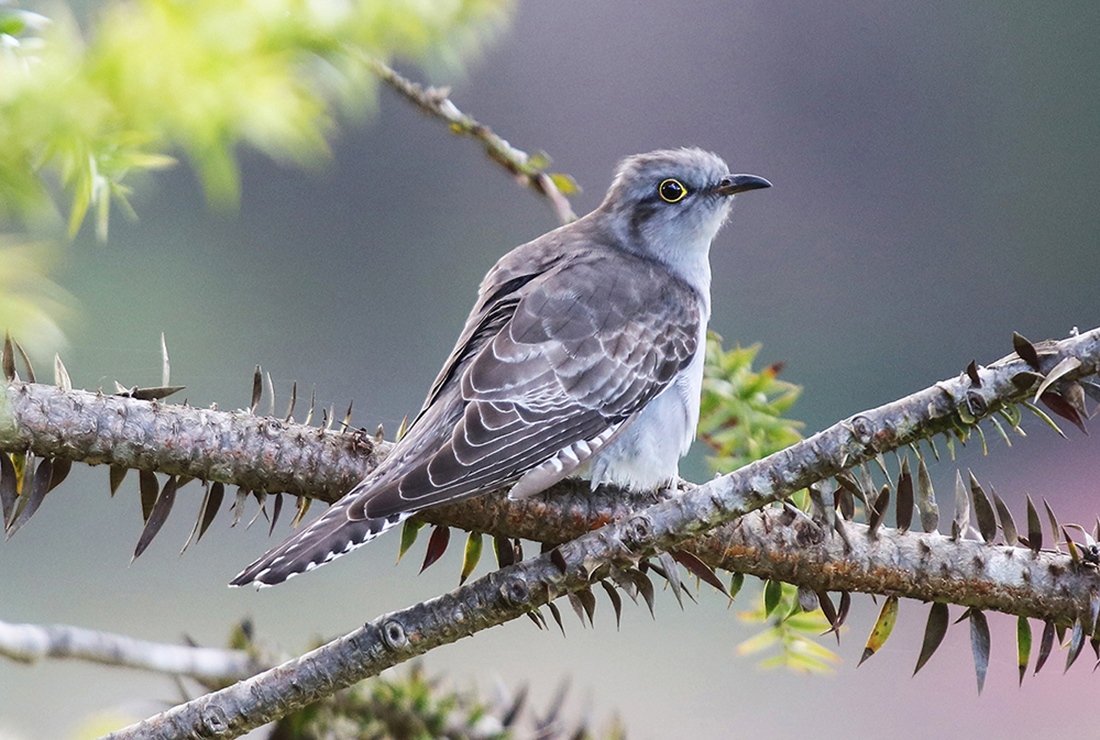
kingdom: Animalia
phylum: Chordata
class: Aves
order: Cuculiformes
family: Cuculidae
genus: Cuculus
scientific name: Cuculus pallidus
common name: Pallid cuckoo
